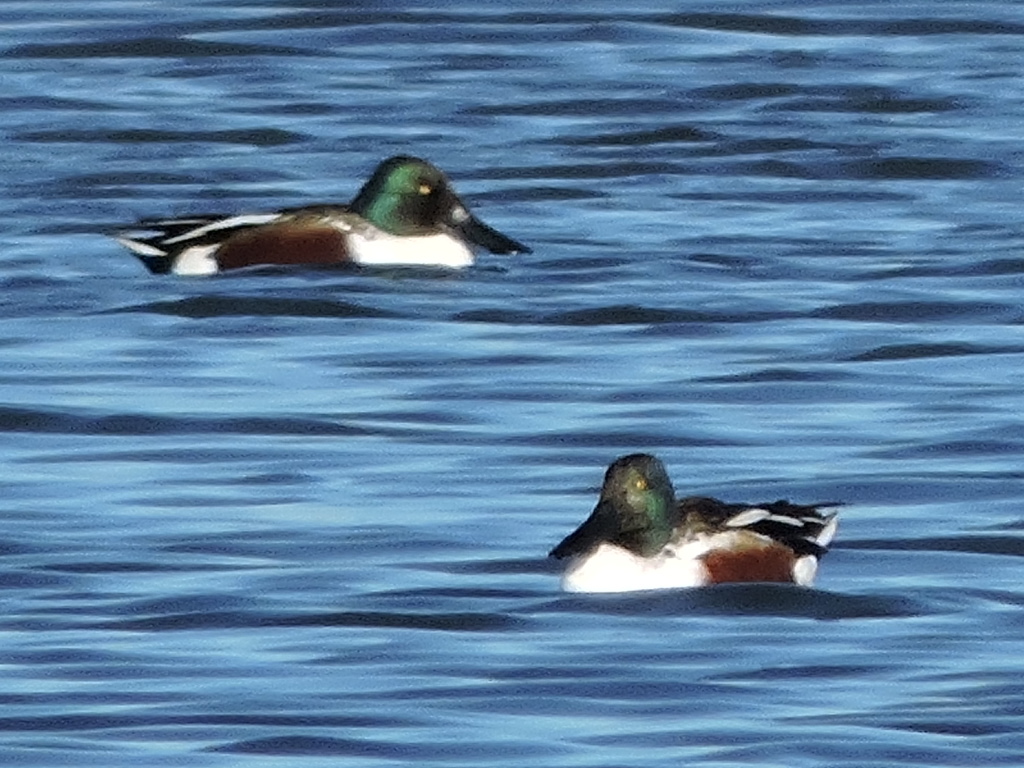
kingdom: Animalia
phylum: Chordata
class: Aves
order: Anseriformes
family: Anatidae
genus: Spatula
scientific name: Spatula clypeata
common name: Northern shoveler
